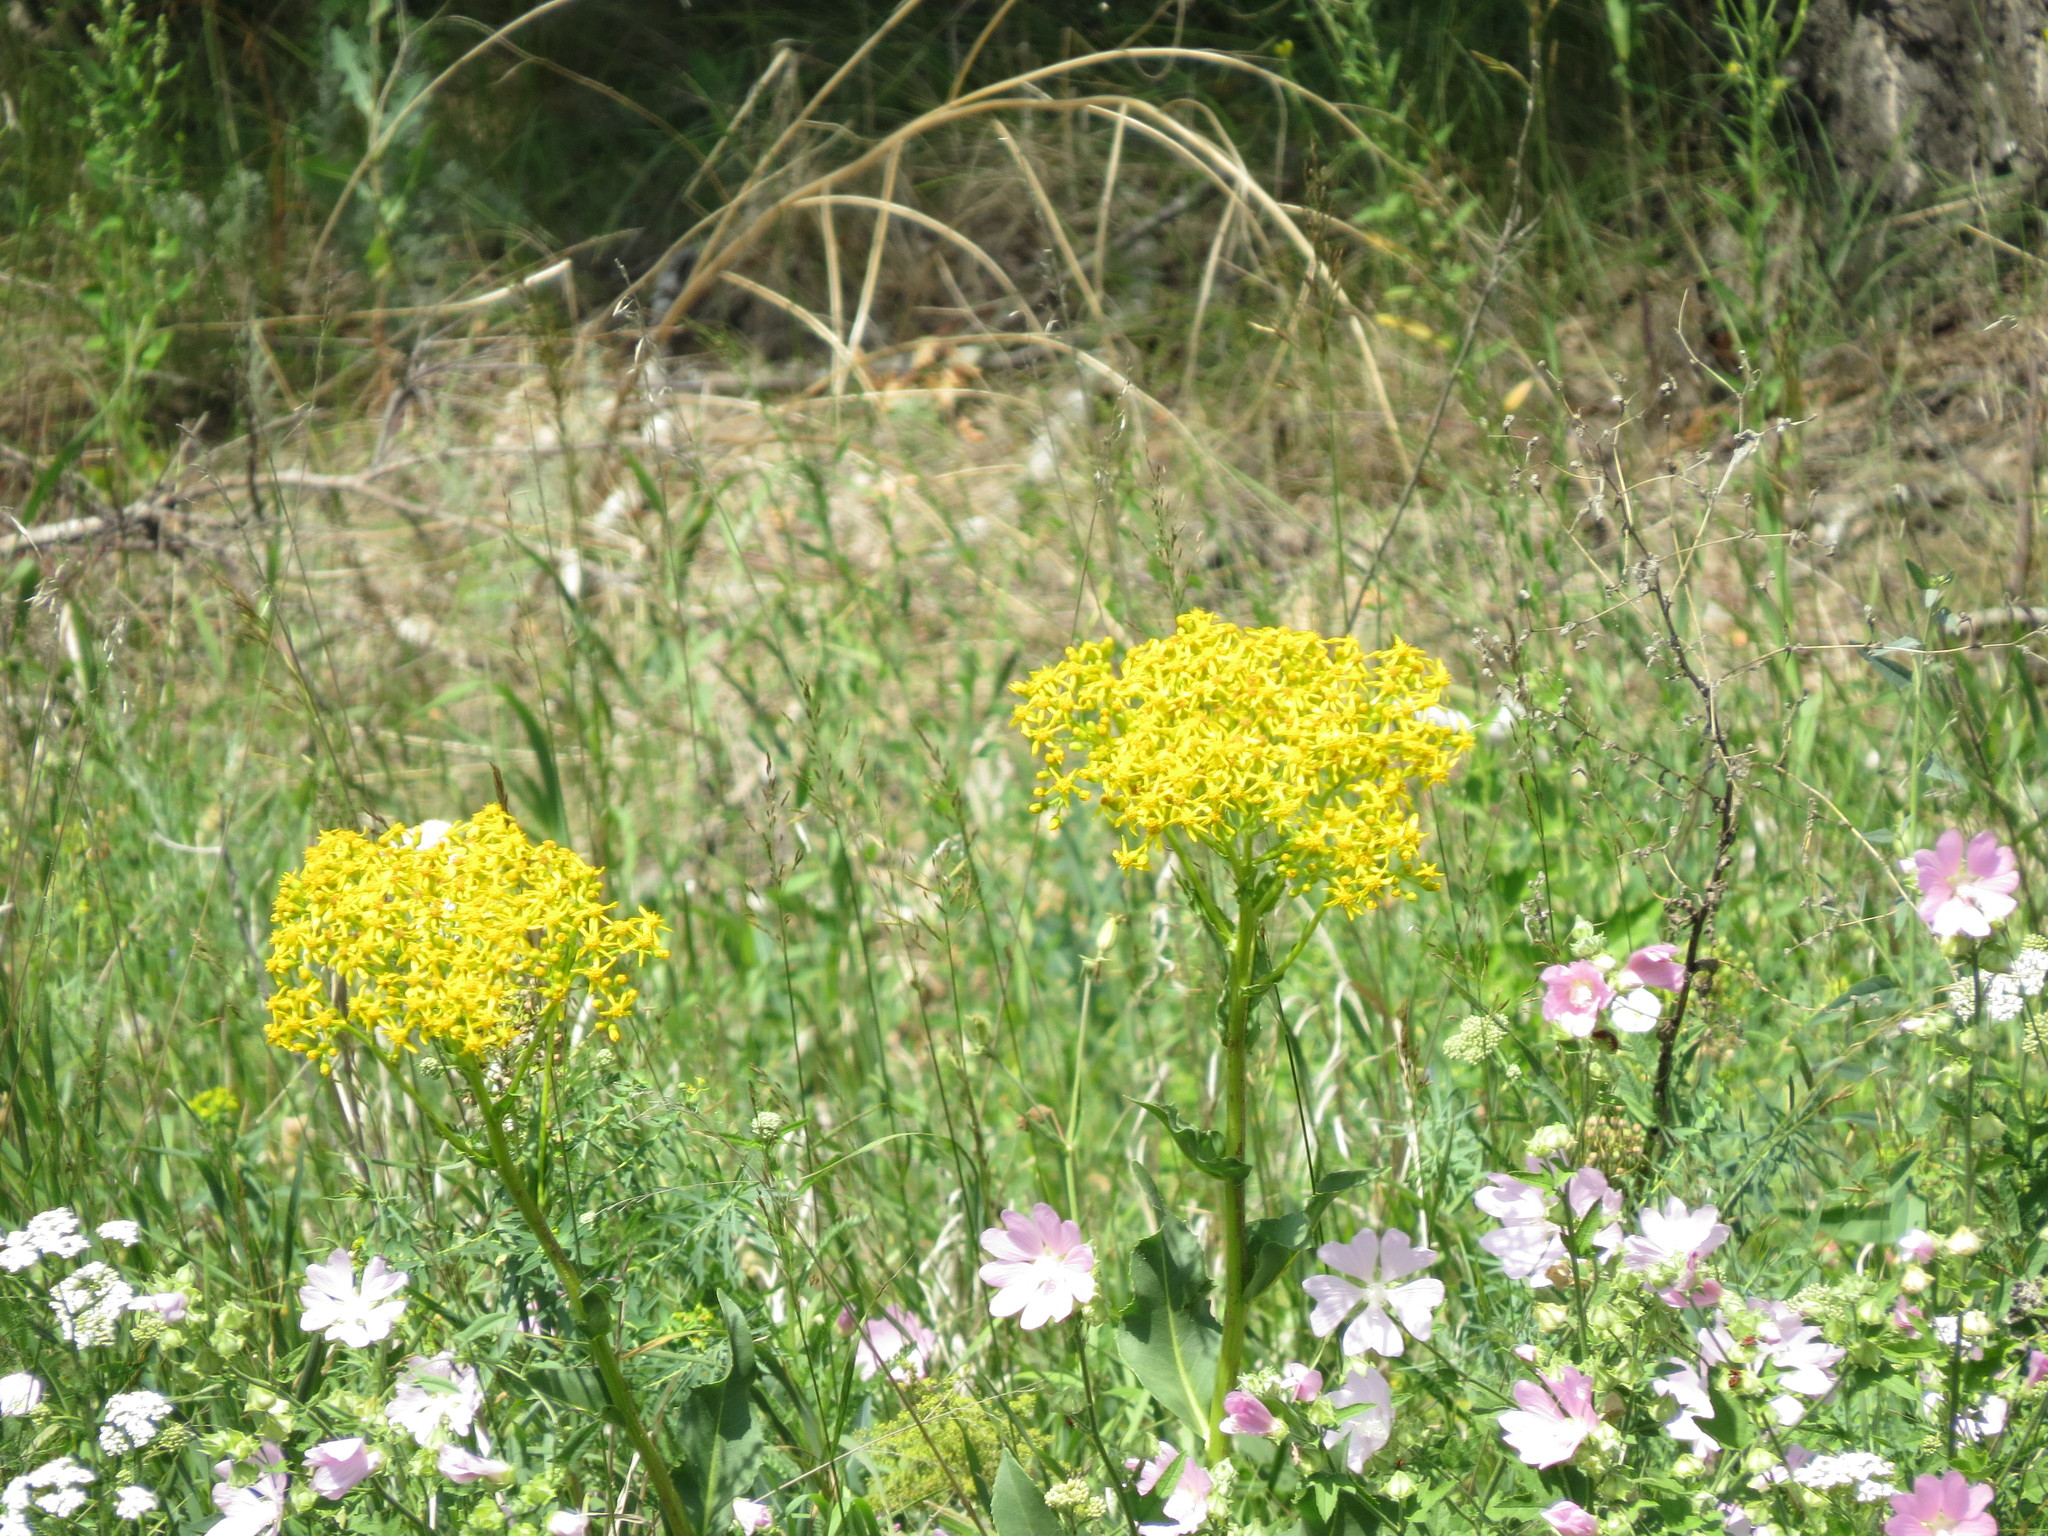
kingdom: Plantae
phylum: Tracheophyta
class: Magnoliopsida
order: Brassicales
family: Brassicaceae
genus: Isatis
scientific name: Isatis tinctoria
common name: Woad
